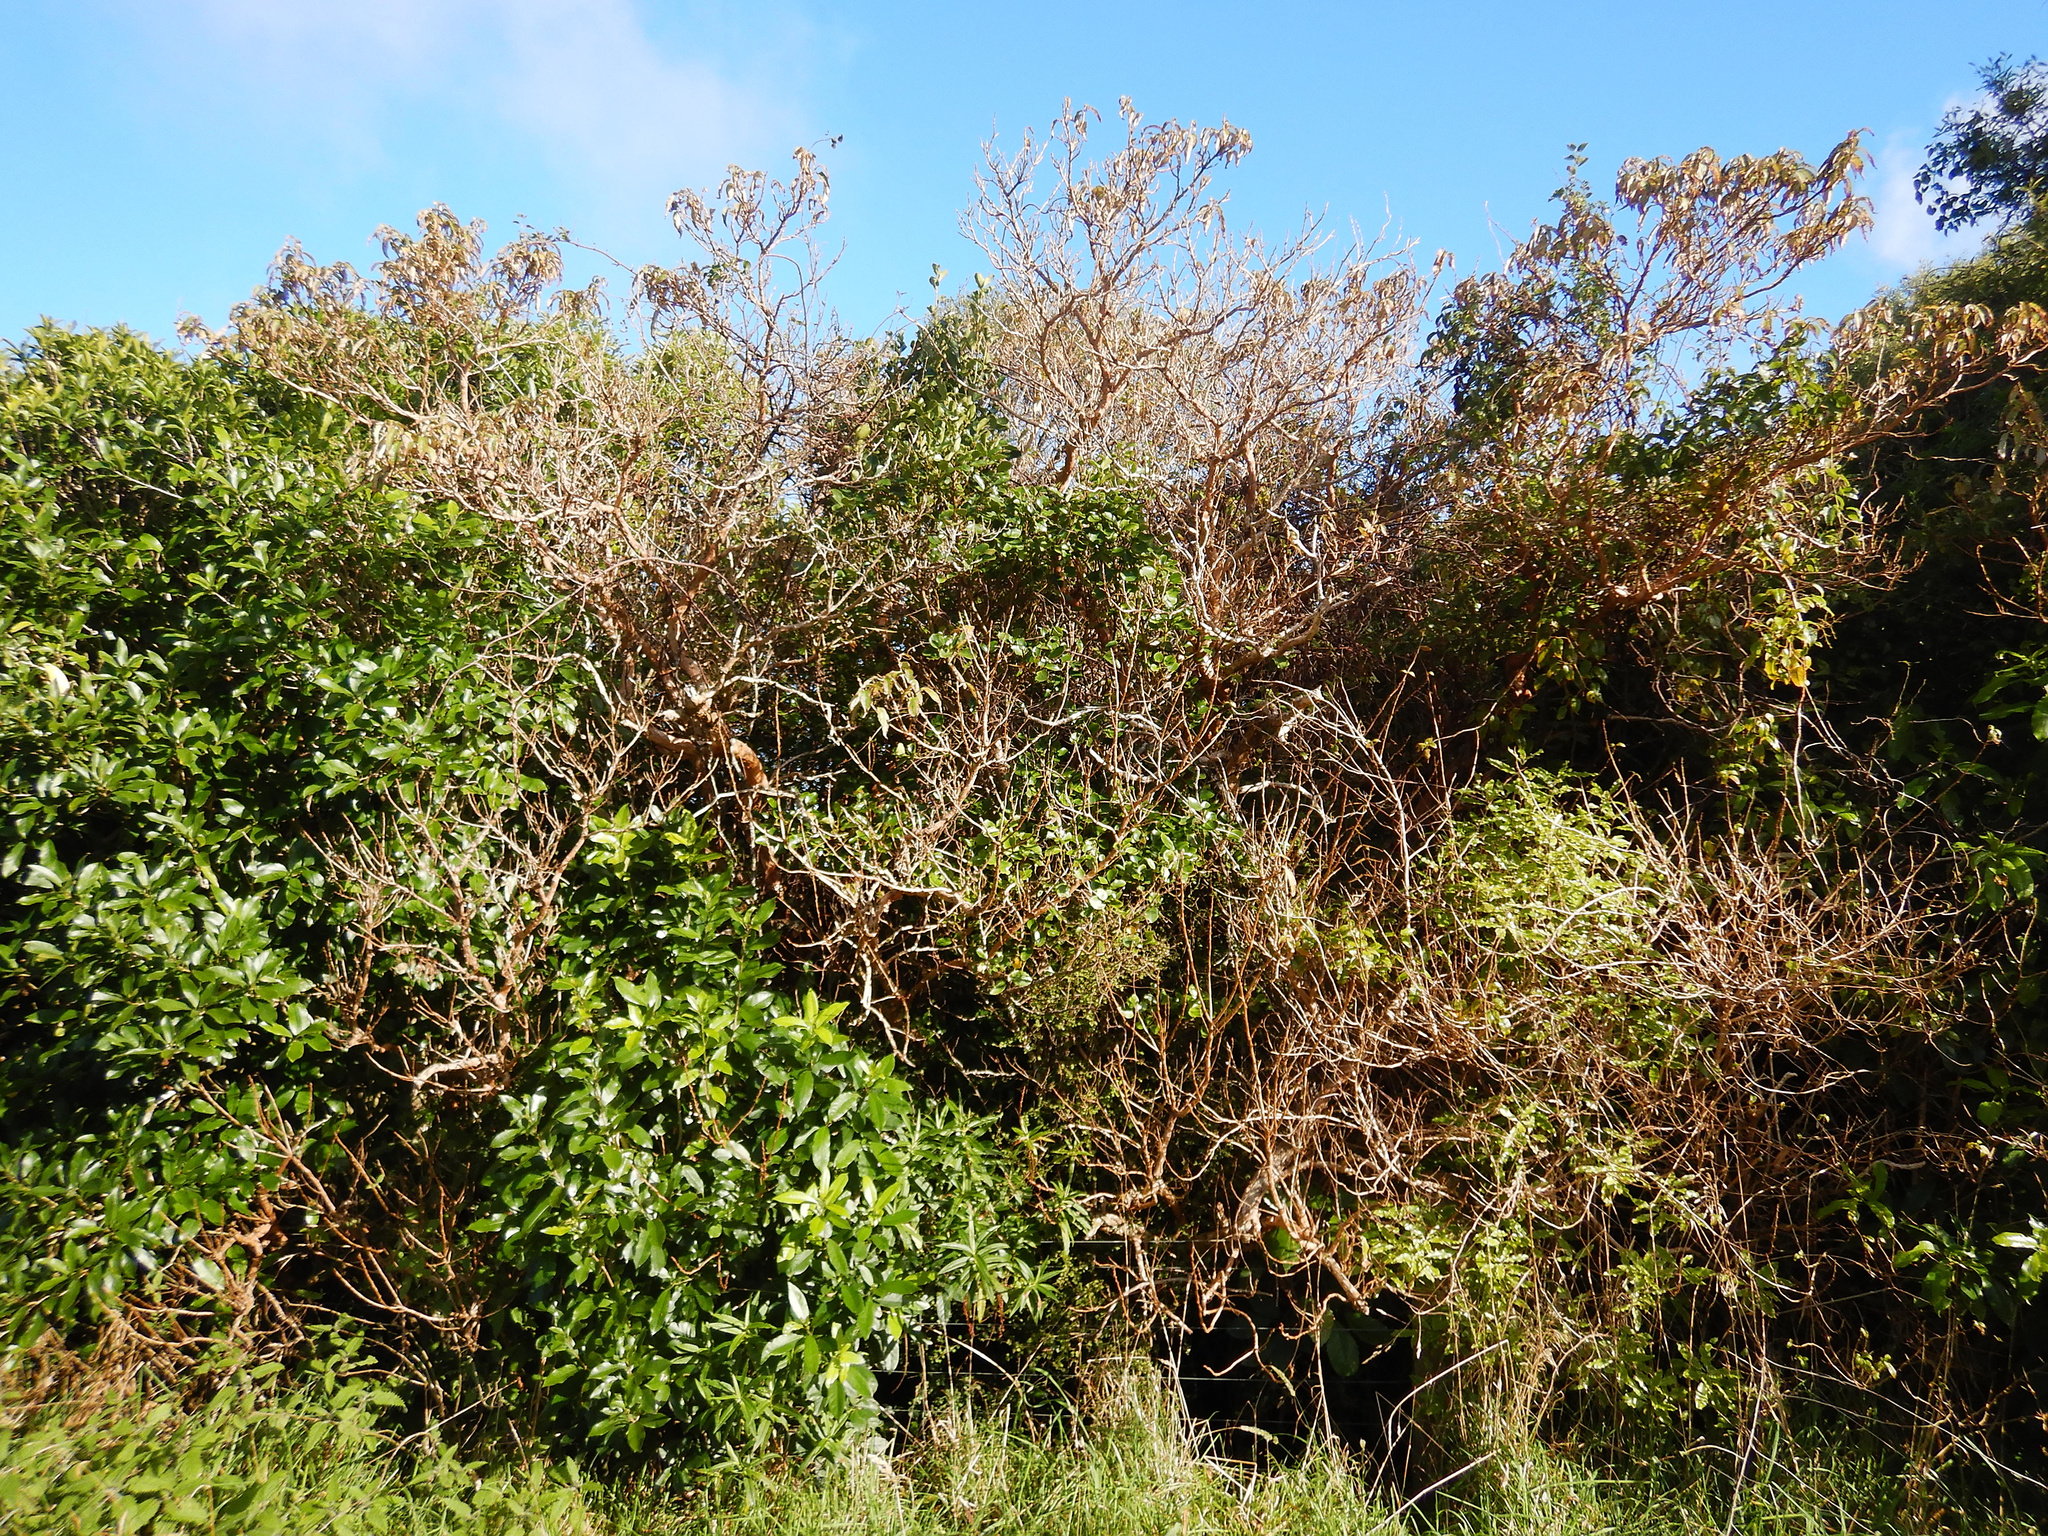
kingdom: Plantae
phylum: Tracheophyta
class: Magnoliopsida
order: Myrtales
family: Onagraceae
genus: Fuchsia
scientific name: Fuchsia excorticata
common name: Tree fuchsia
